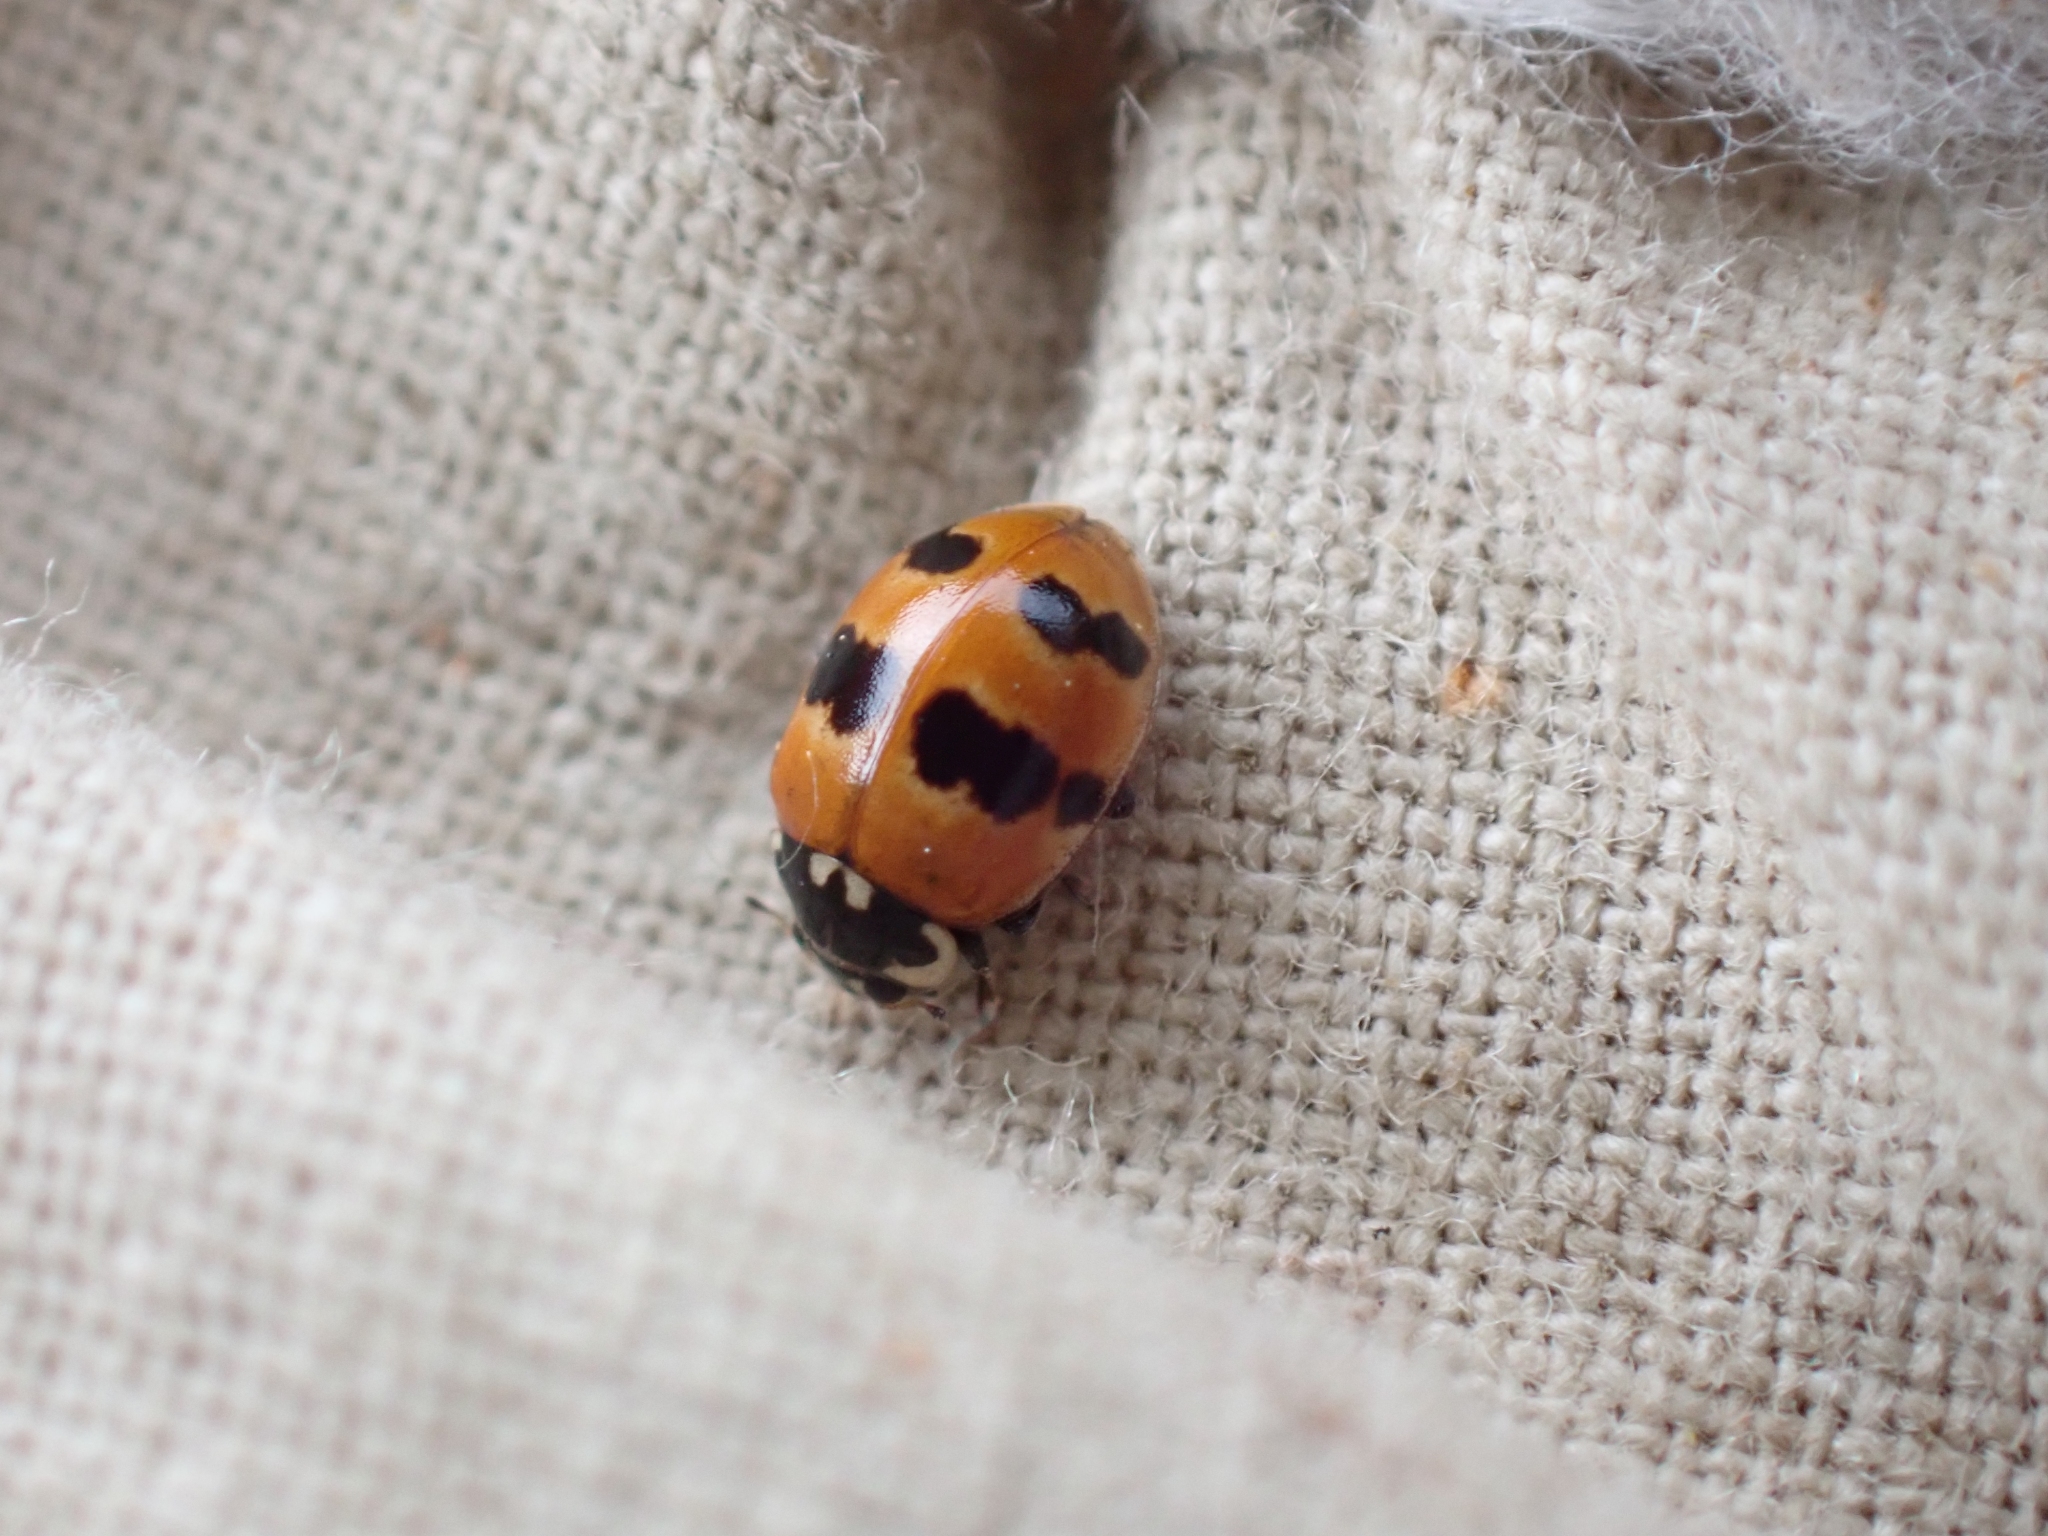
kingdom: Animalia
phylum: Arthropoda
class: Insecta
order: Coleoptera
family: Coccinellidae
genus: Adalia
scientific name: Adalia bipunctata
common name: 2-spot ladybird
